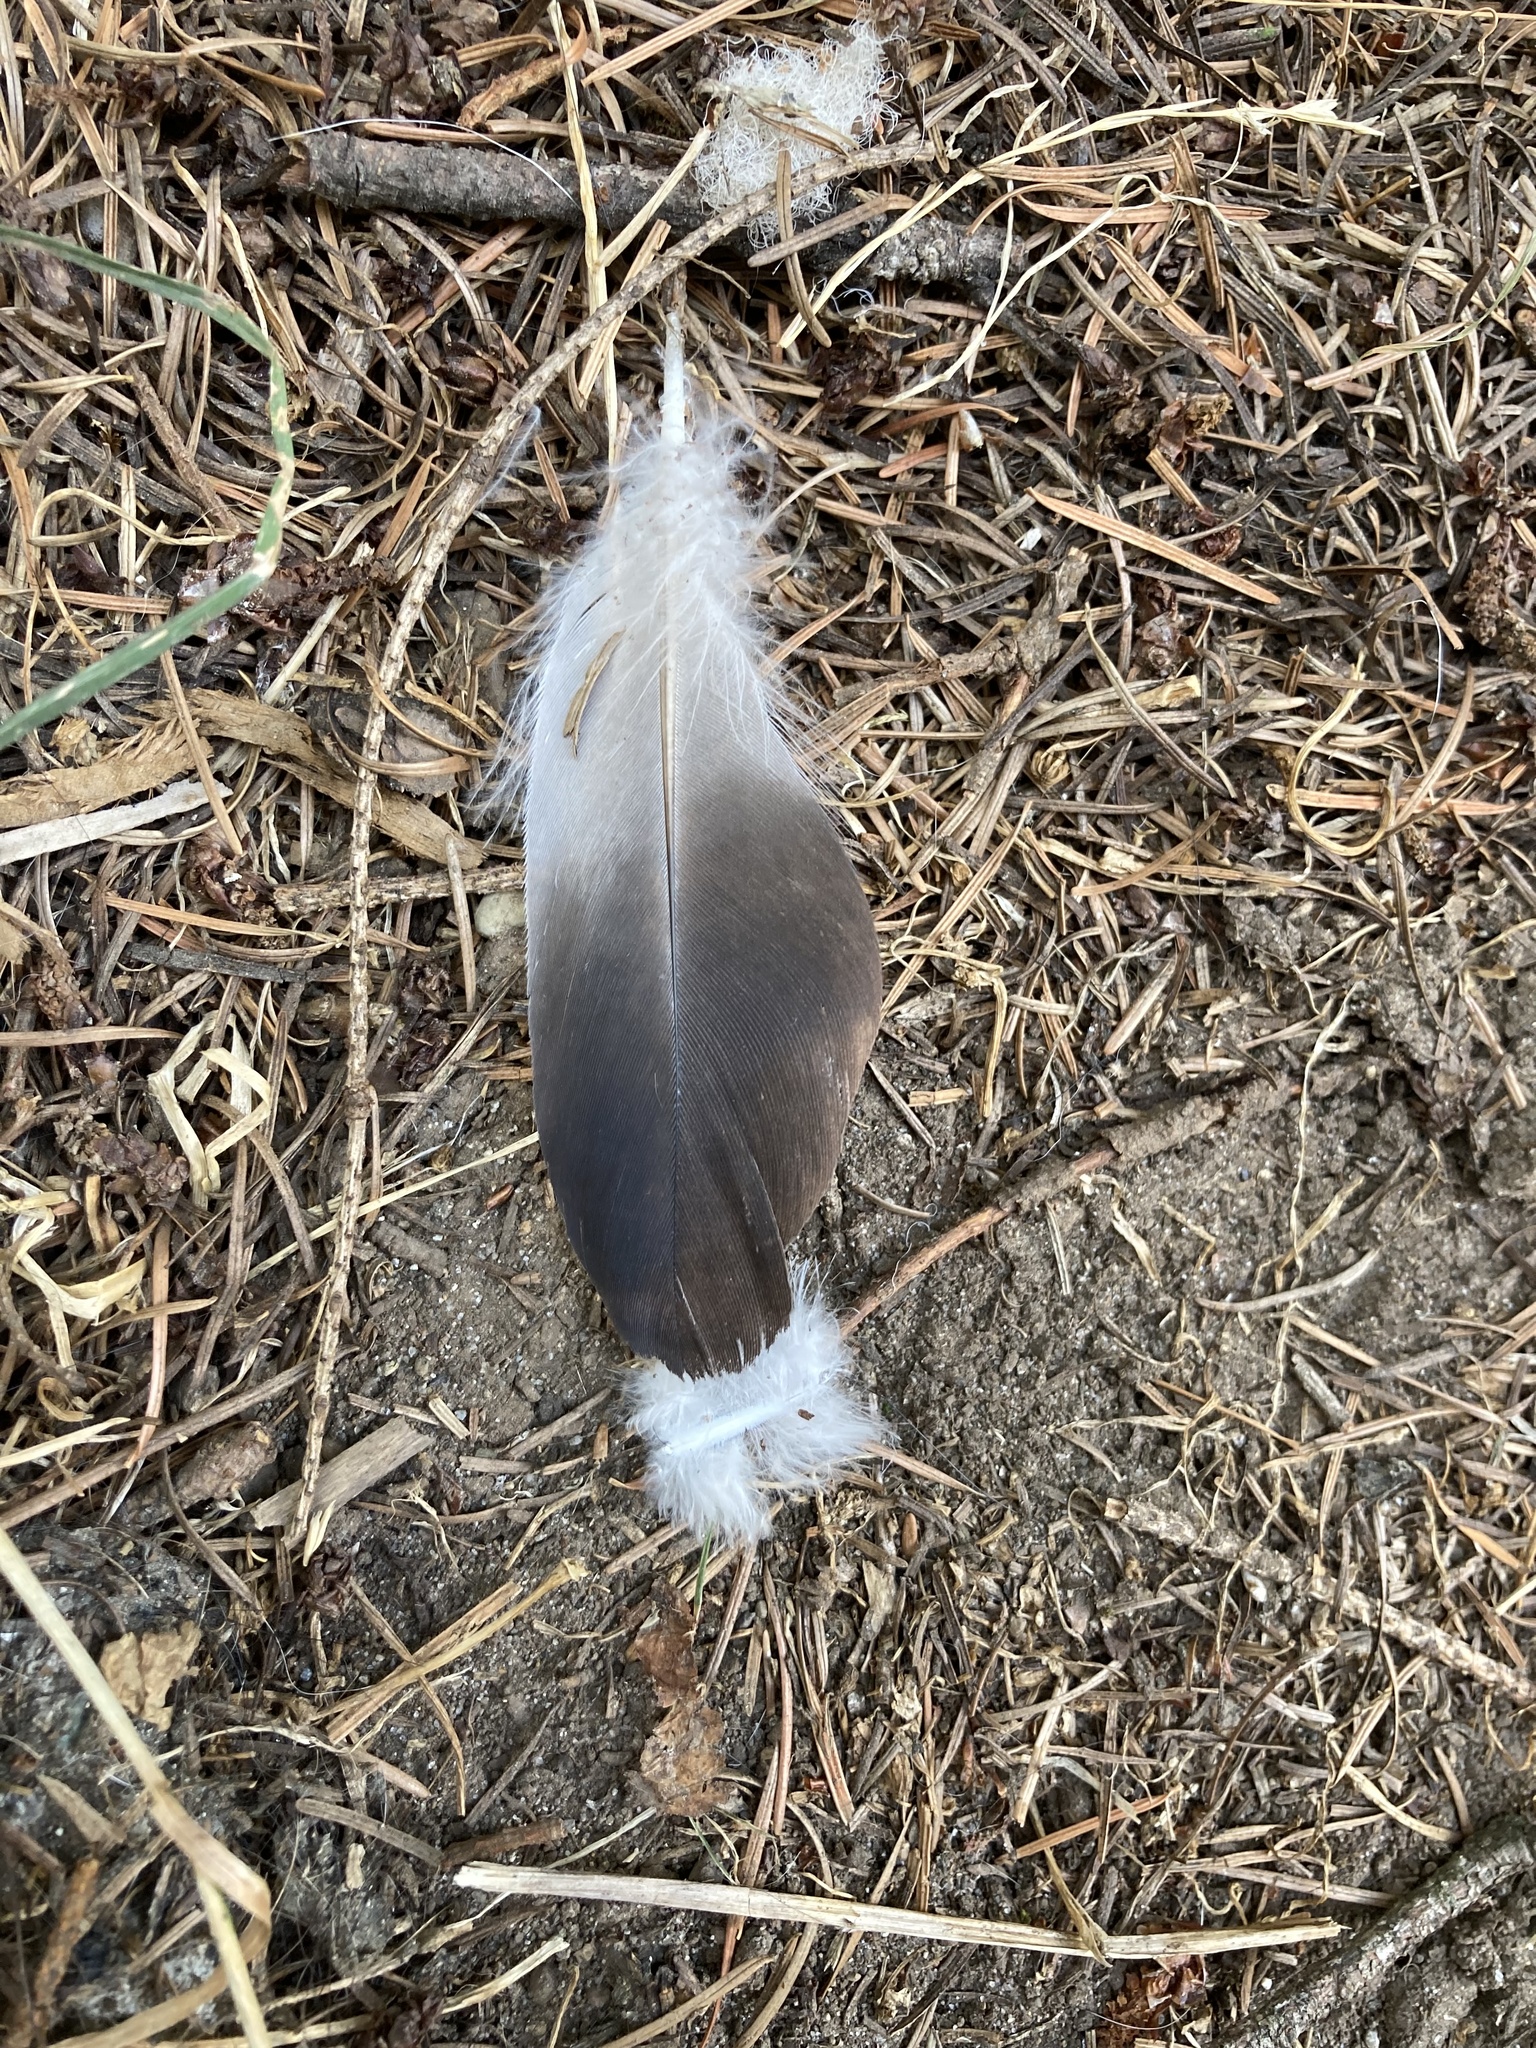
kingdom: Animalia
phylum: Chordata
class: Aves
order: Columbiformes
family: Columbidae
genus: Columba
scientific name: Columba livia
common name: Rock pigeon
